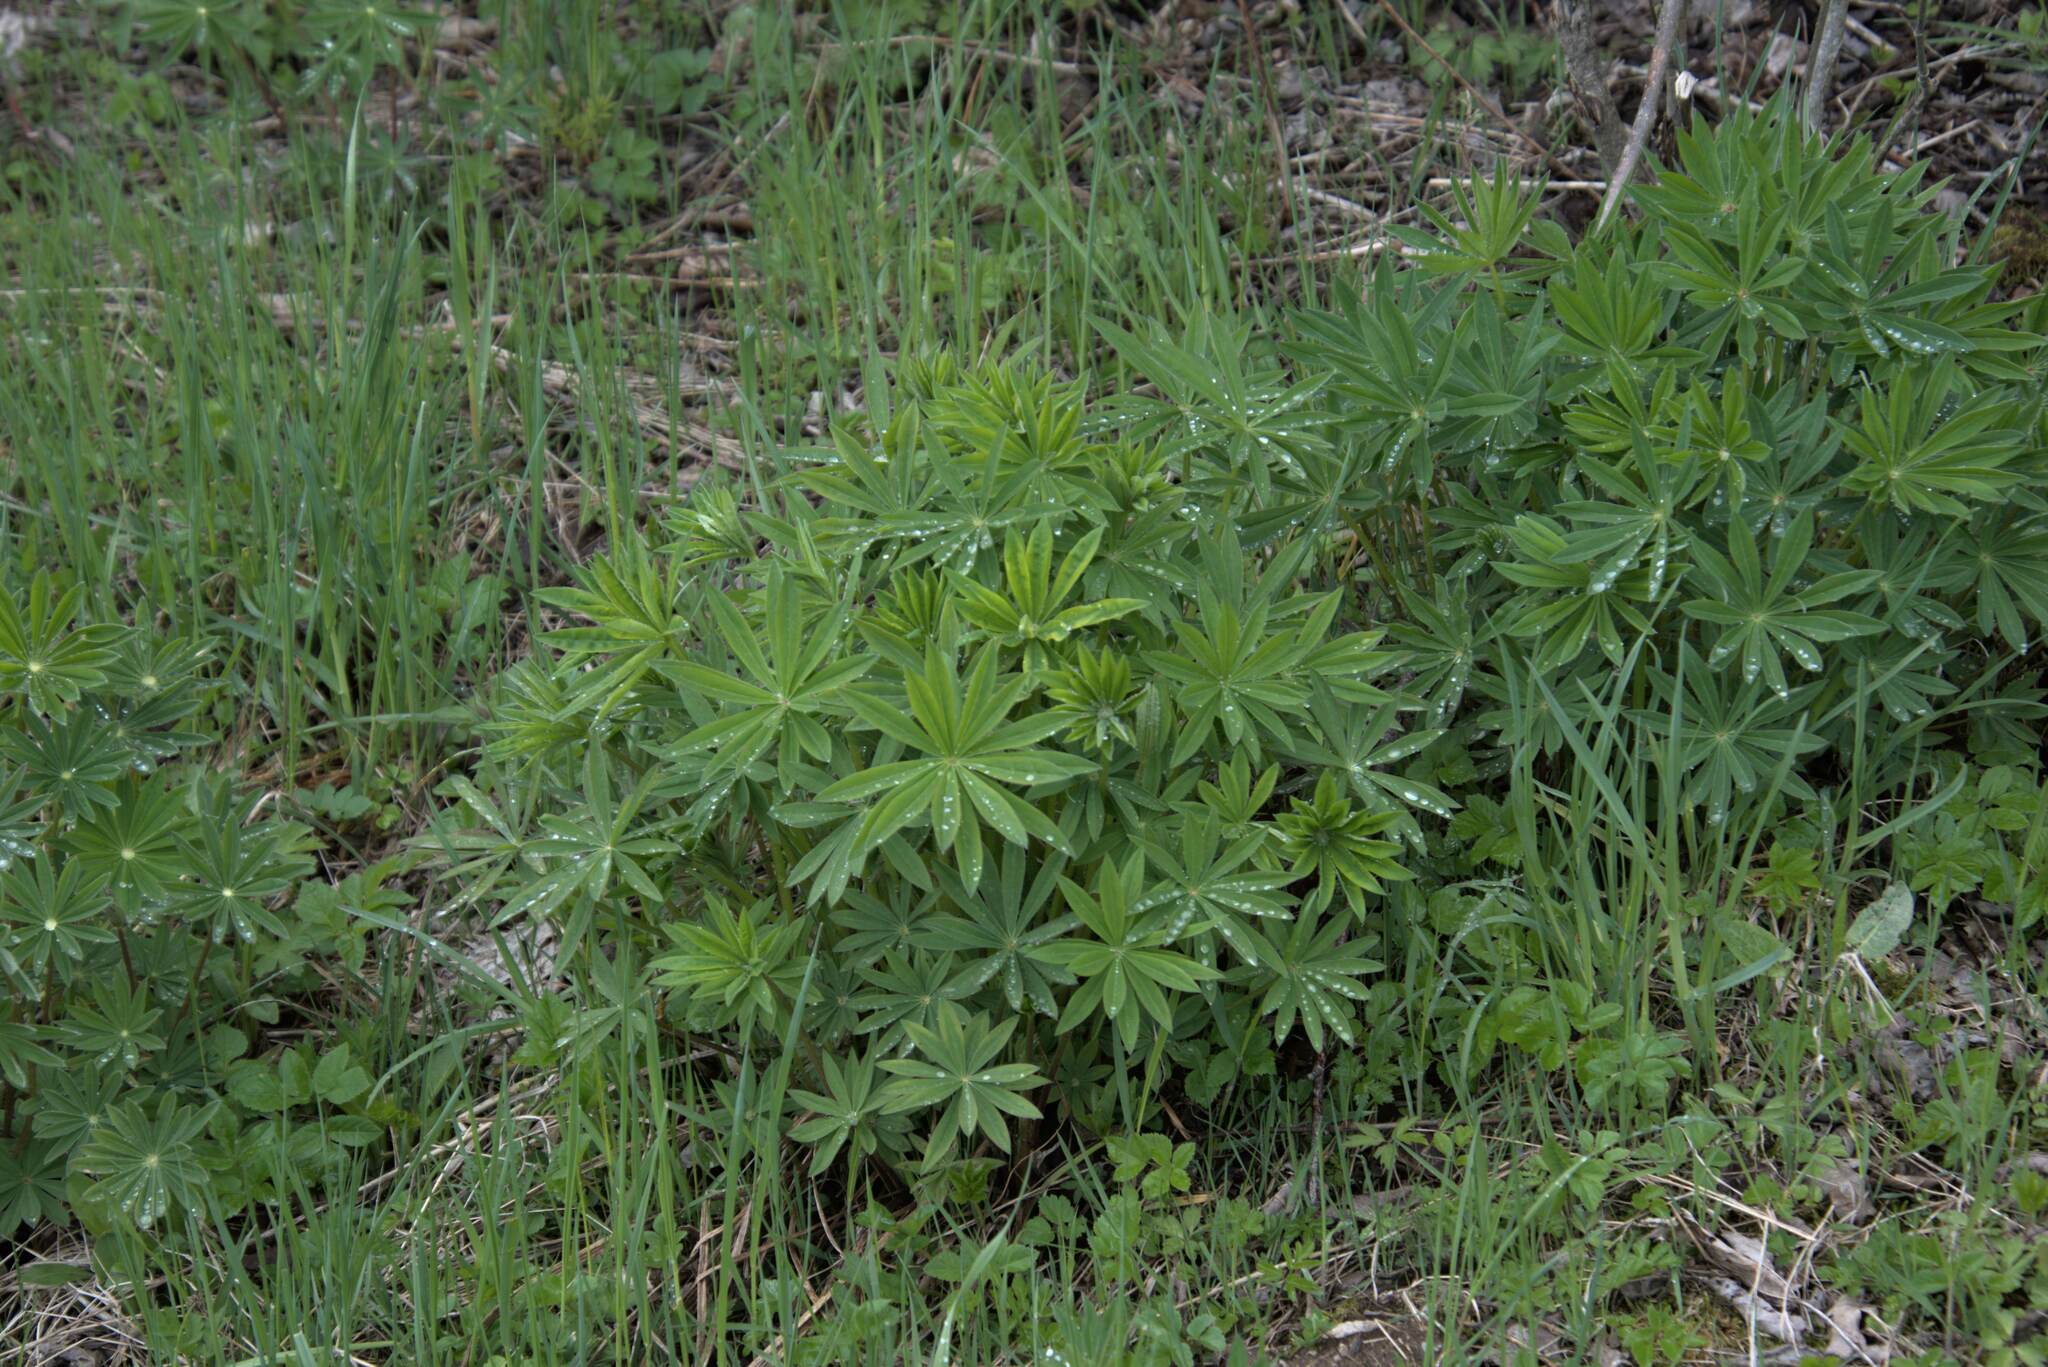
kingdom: Plantae
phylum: Tracheophyta
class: Magnoliopsida
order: Fabales
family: Fabaceae
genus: Lupinus
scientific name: Lupinus polyphyllus
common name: Garden lupin
